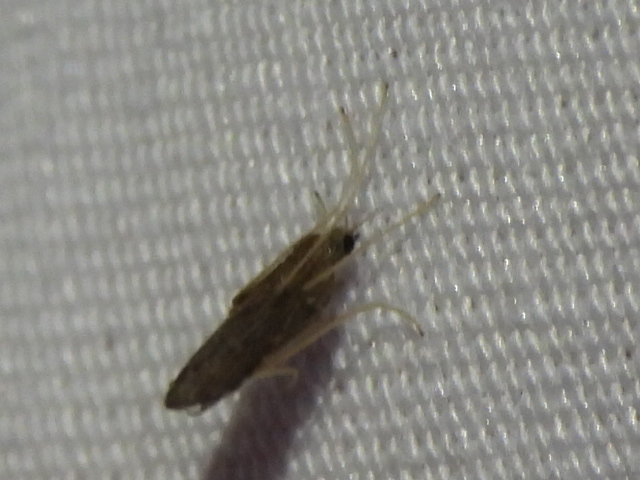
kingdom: Animalia
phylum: Arthropoda
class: Insecta
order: Diptera
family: Limoniidae
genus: Erioptera
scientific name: Erioptera tantilla
